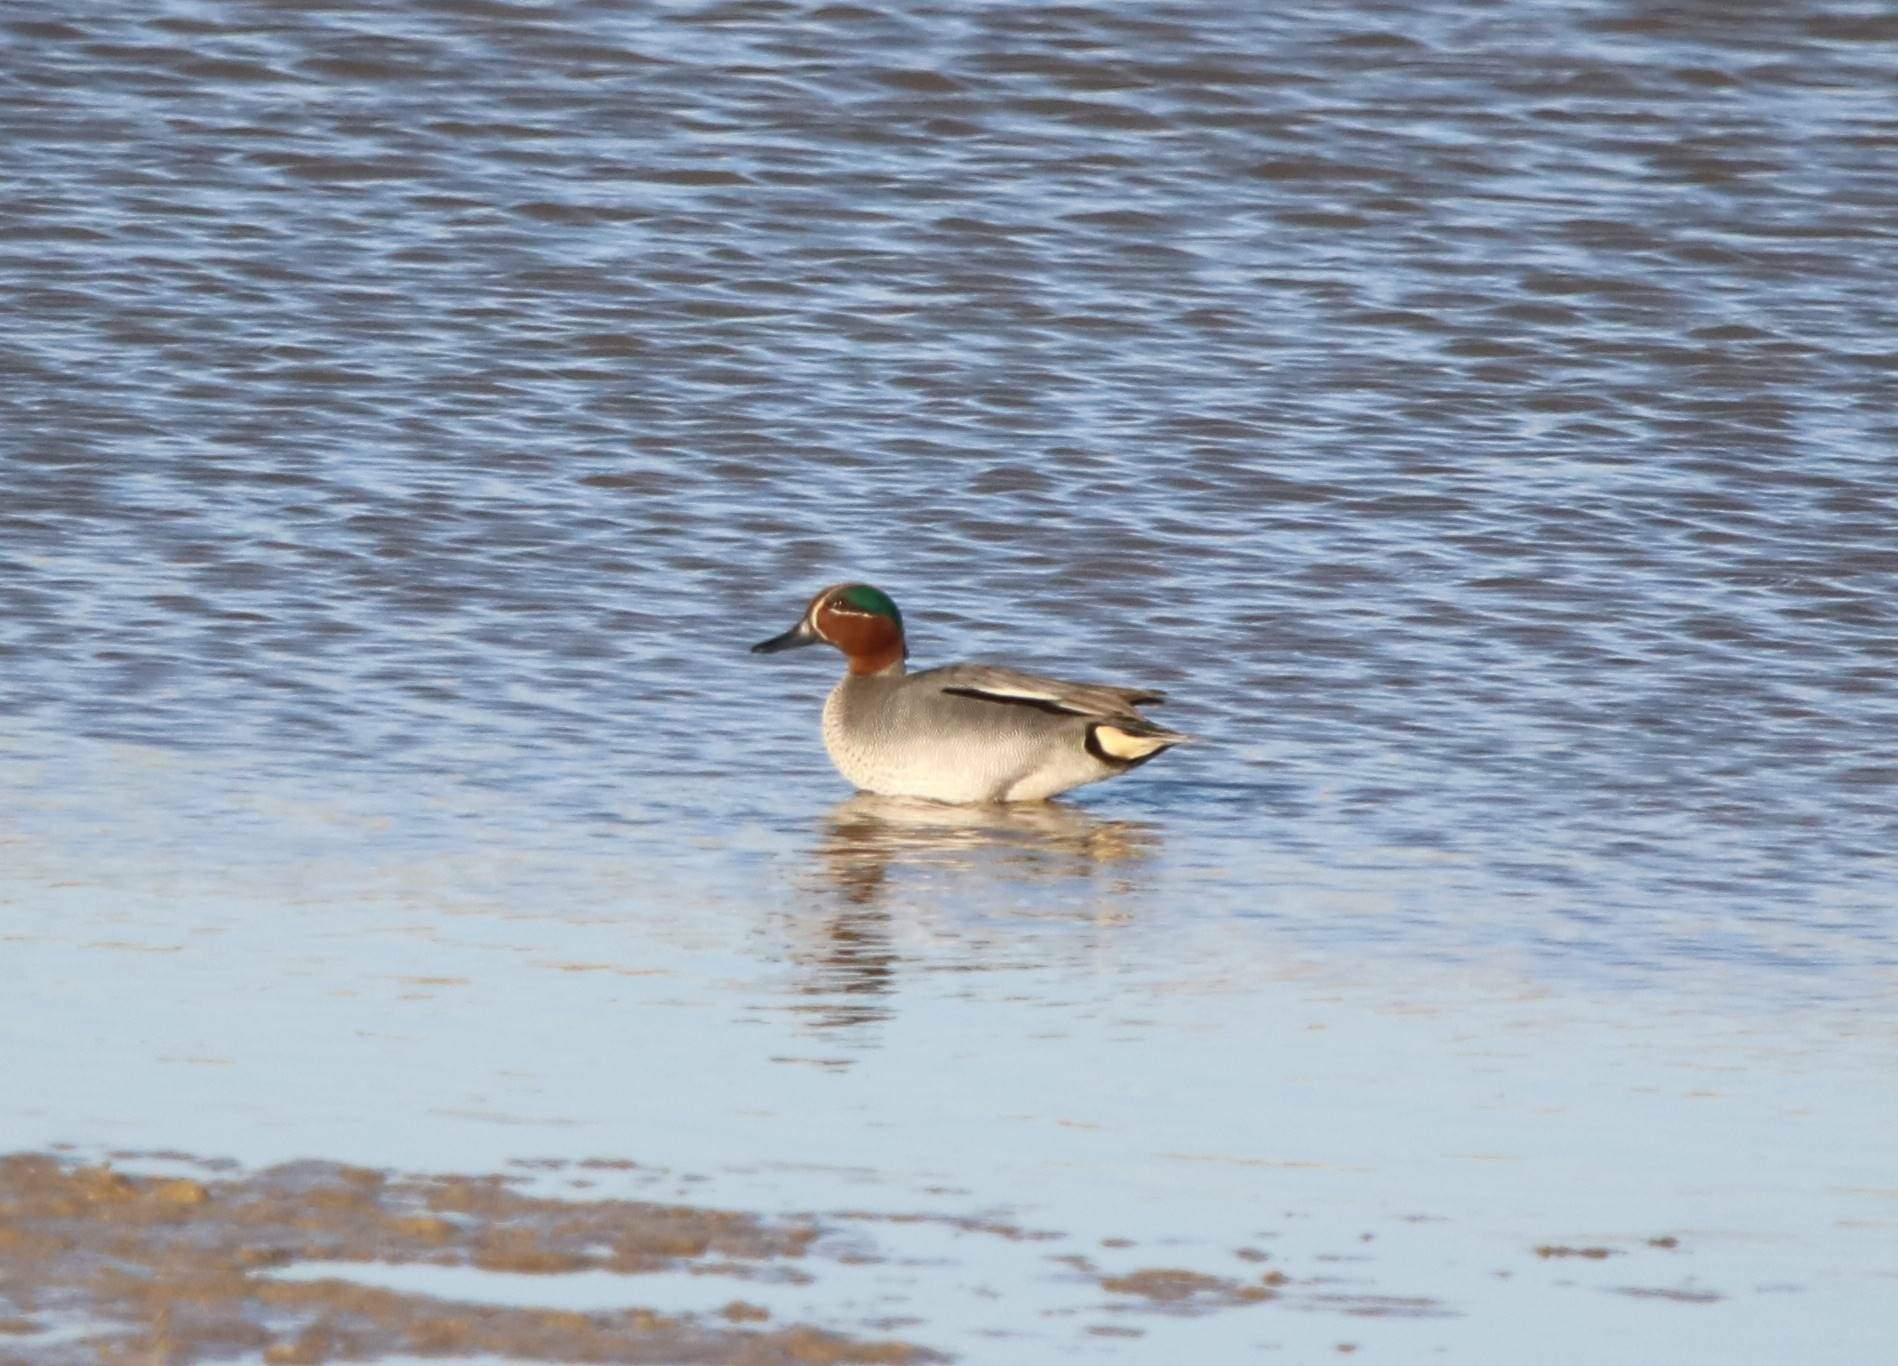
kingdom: Animalia
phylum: Chordata
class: Aves
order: Anseriformes
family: Anatidae
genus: Anas
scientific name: Anas crecca
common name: Eurasian teal
